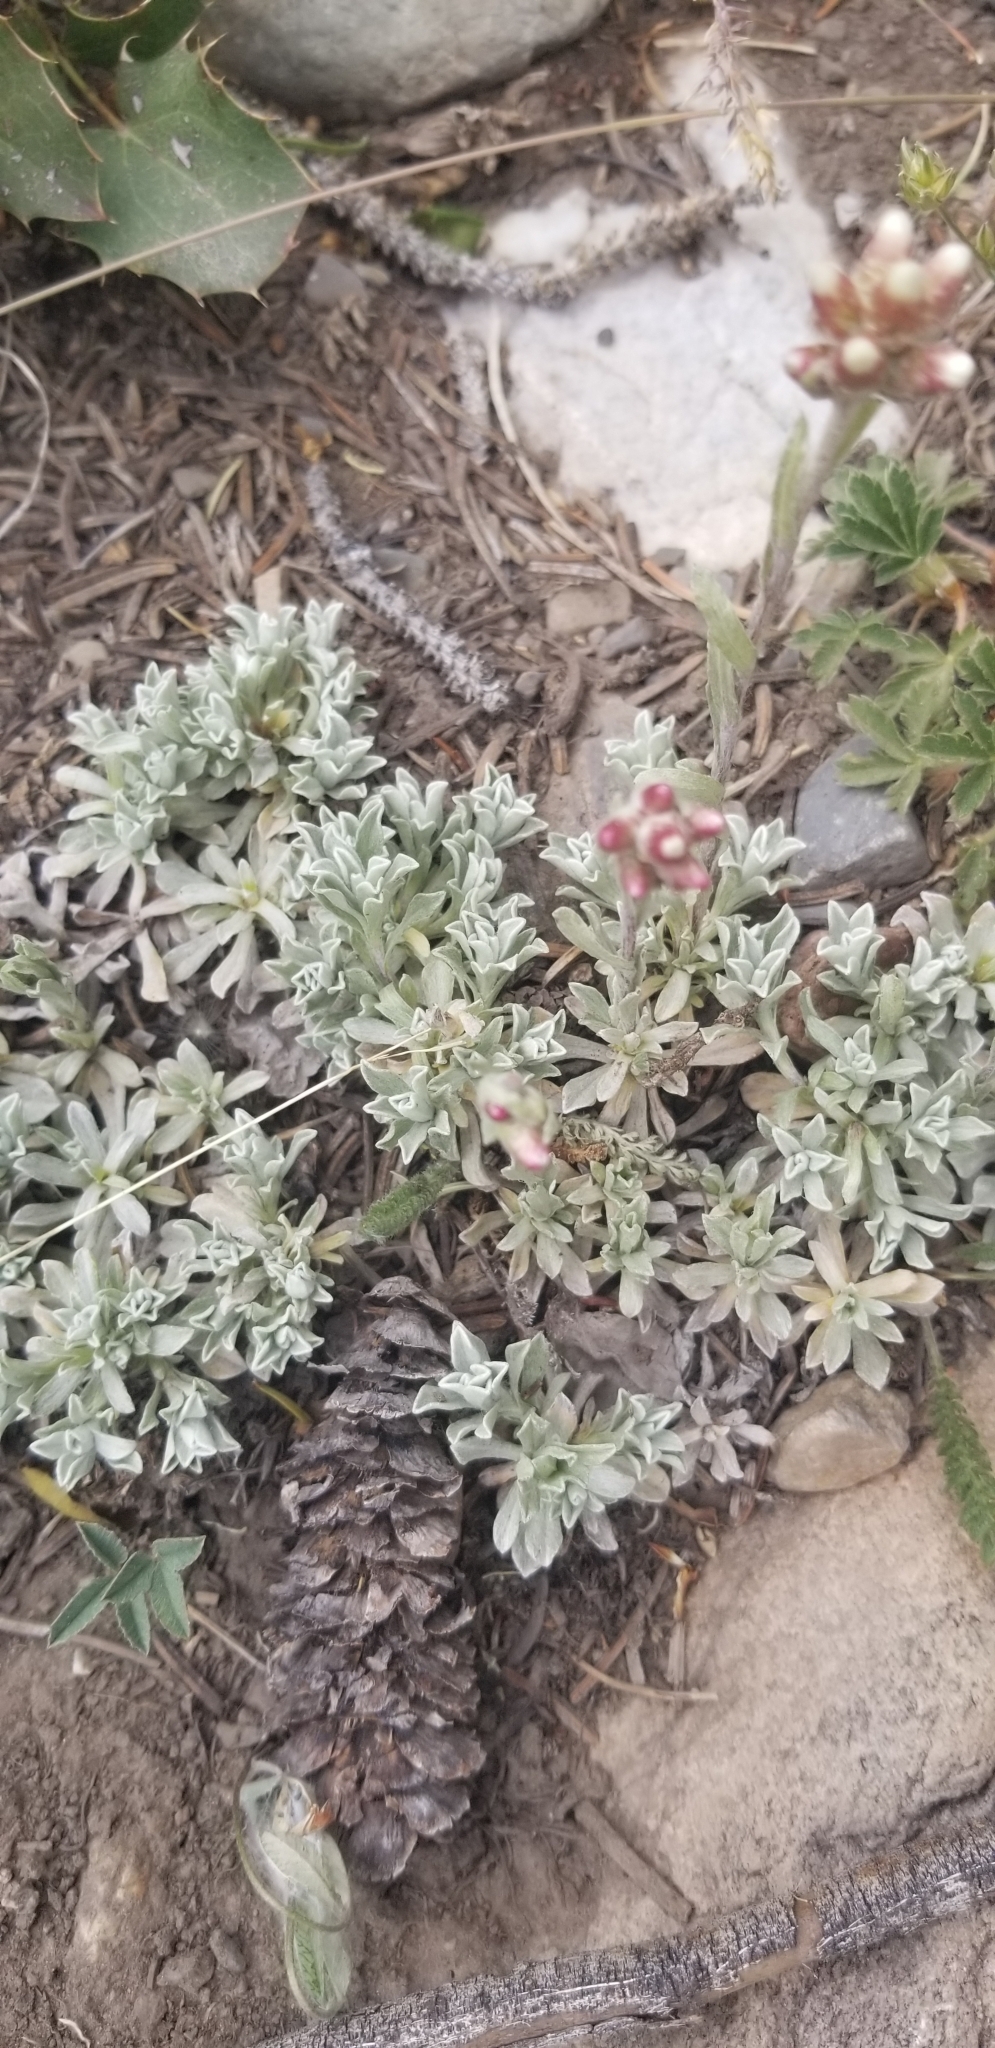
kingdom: Plantae
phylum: Tracheophyta
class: Magnoliopsida
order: Asterales
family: Asteraceae
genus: Antennaria
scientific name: Antennaria rosea
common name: Rosy pussytoes
